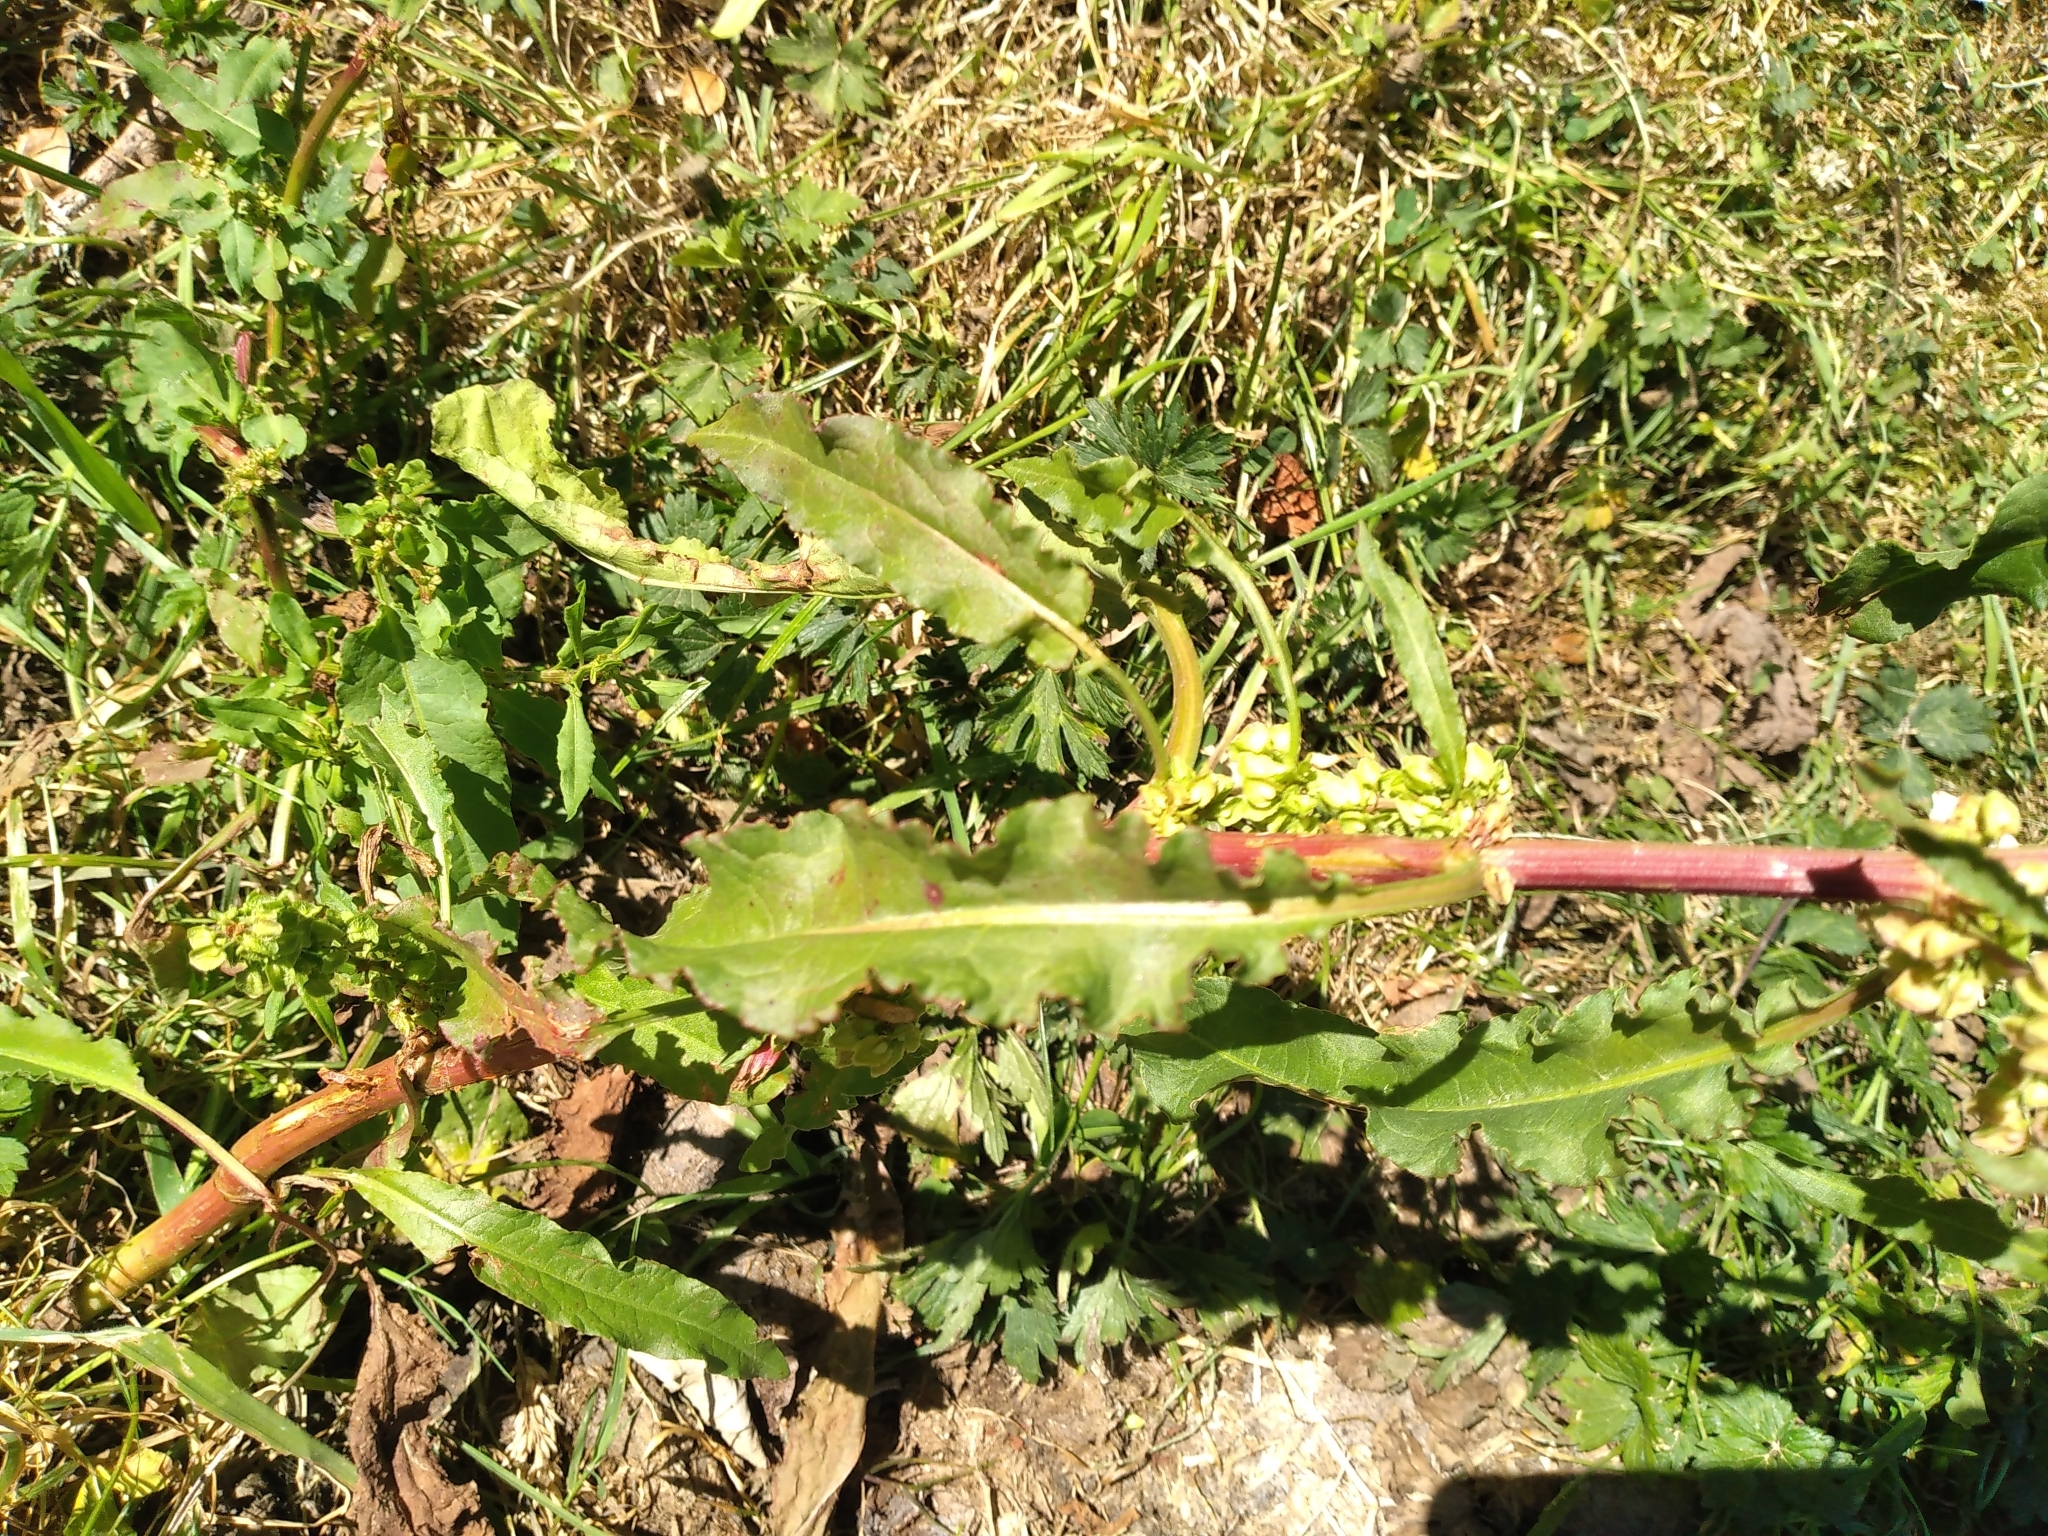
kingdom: Plantae
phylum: Tracheophyta
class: Magnoliopsida
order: Caryophyllales
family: Polygonaceae
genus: Rumex
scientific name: Rumex crispus
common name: Curled dock
